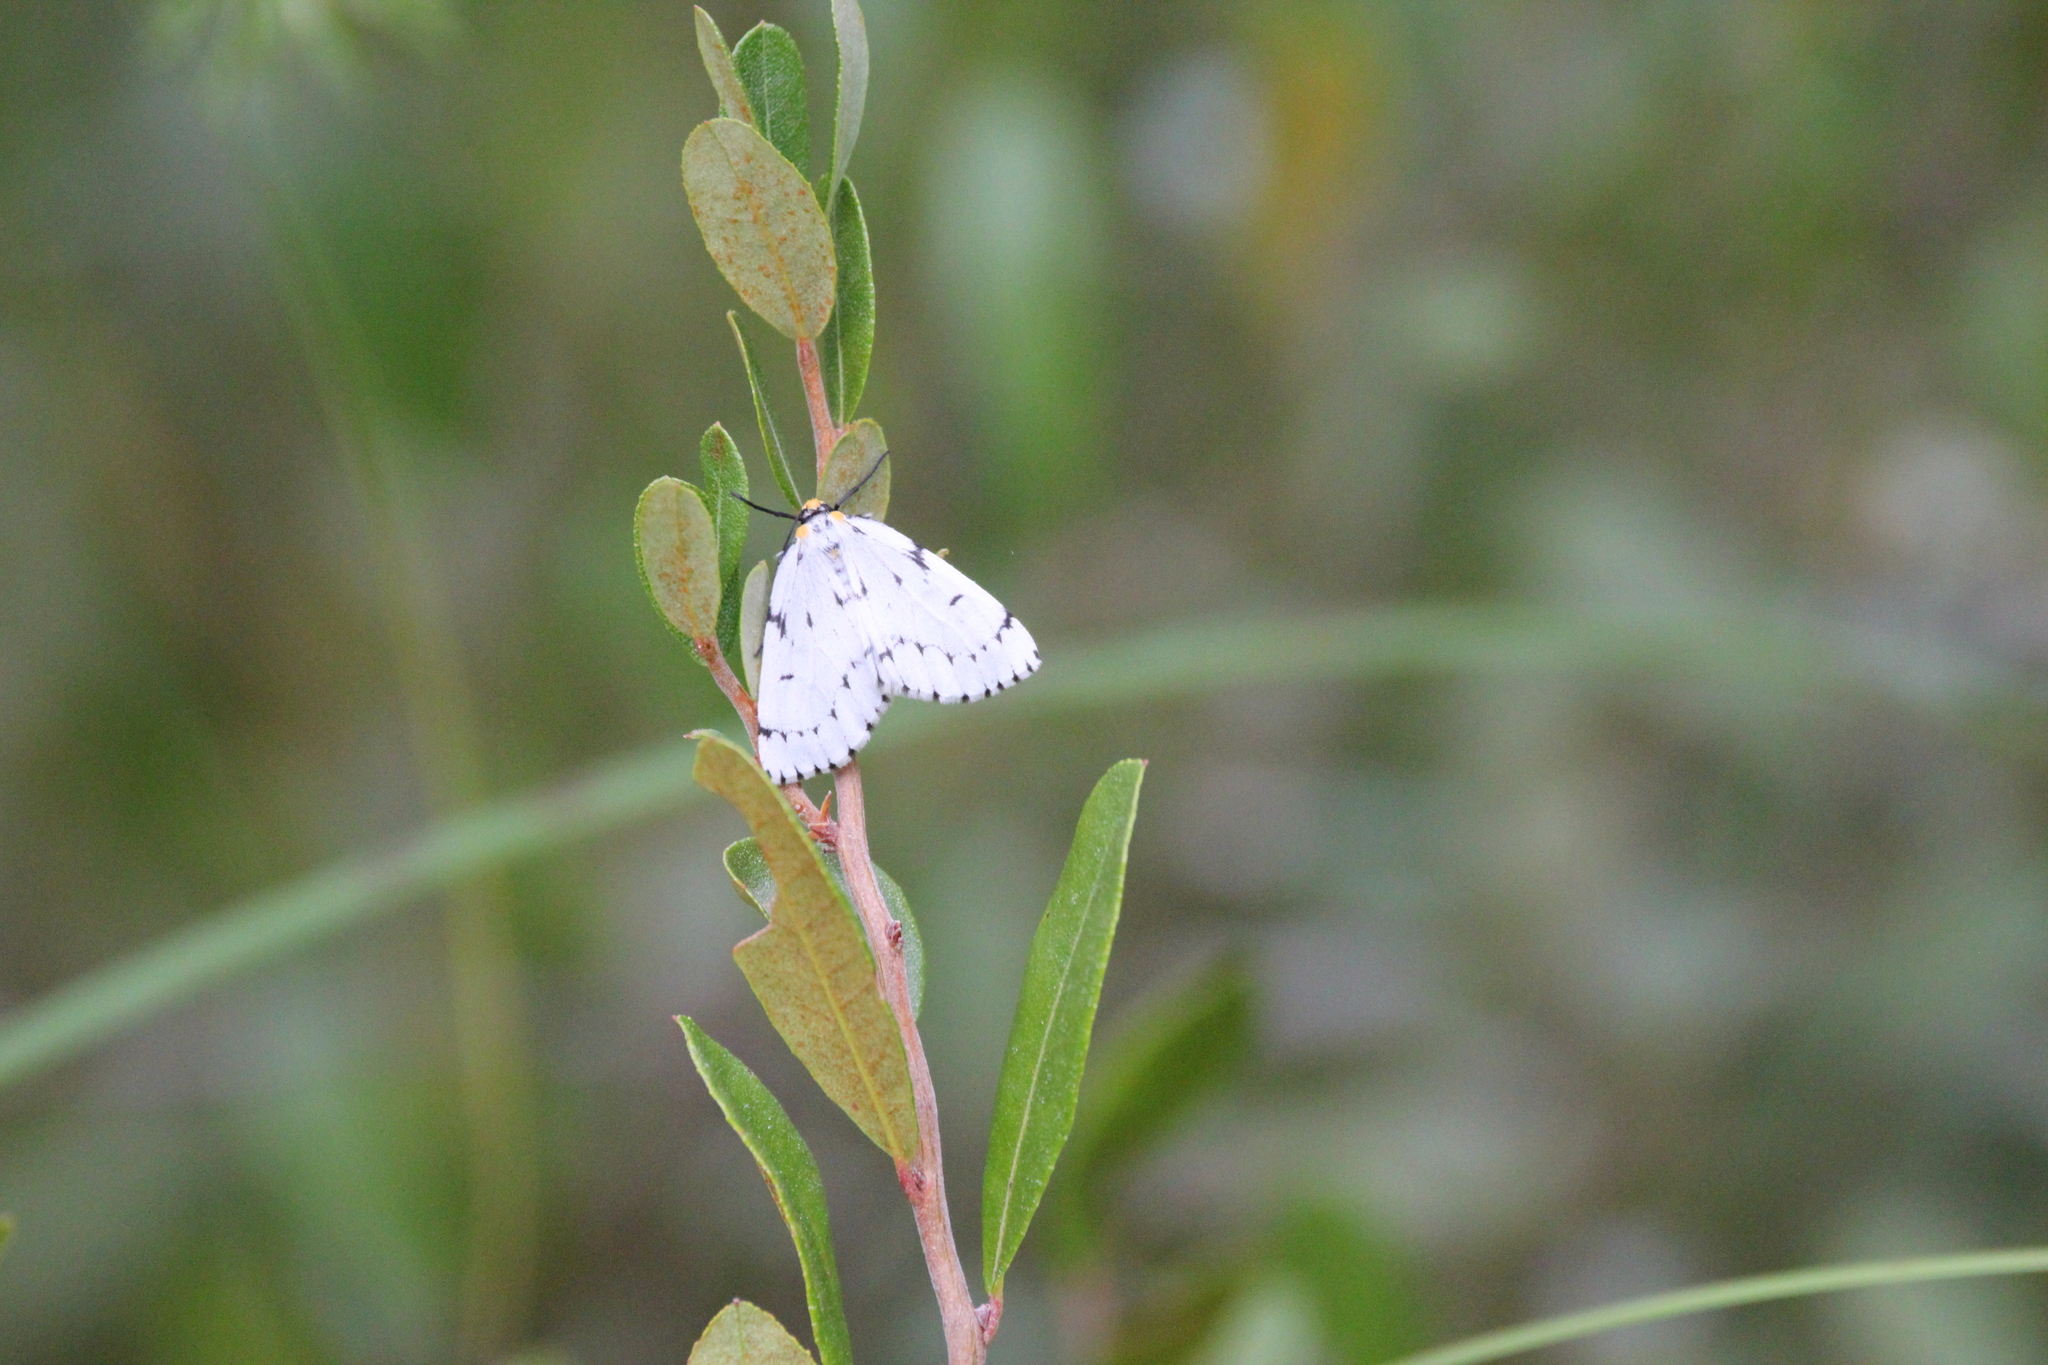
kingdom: Animalia
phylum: Arthropoda
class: Insecta
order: Lepidoptera
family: Geometridae
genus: Cingilia
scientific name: Cingilia catenaria
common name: Chain-dotted geometer
